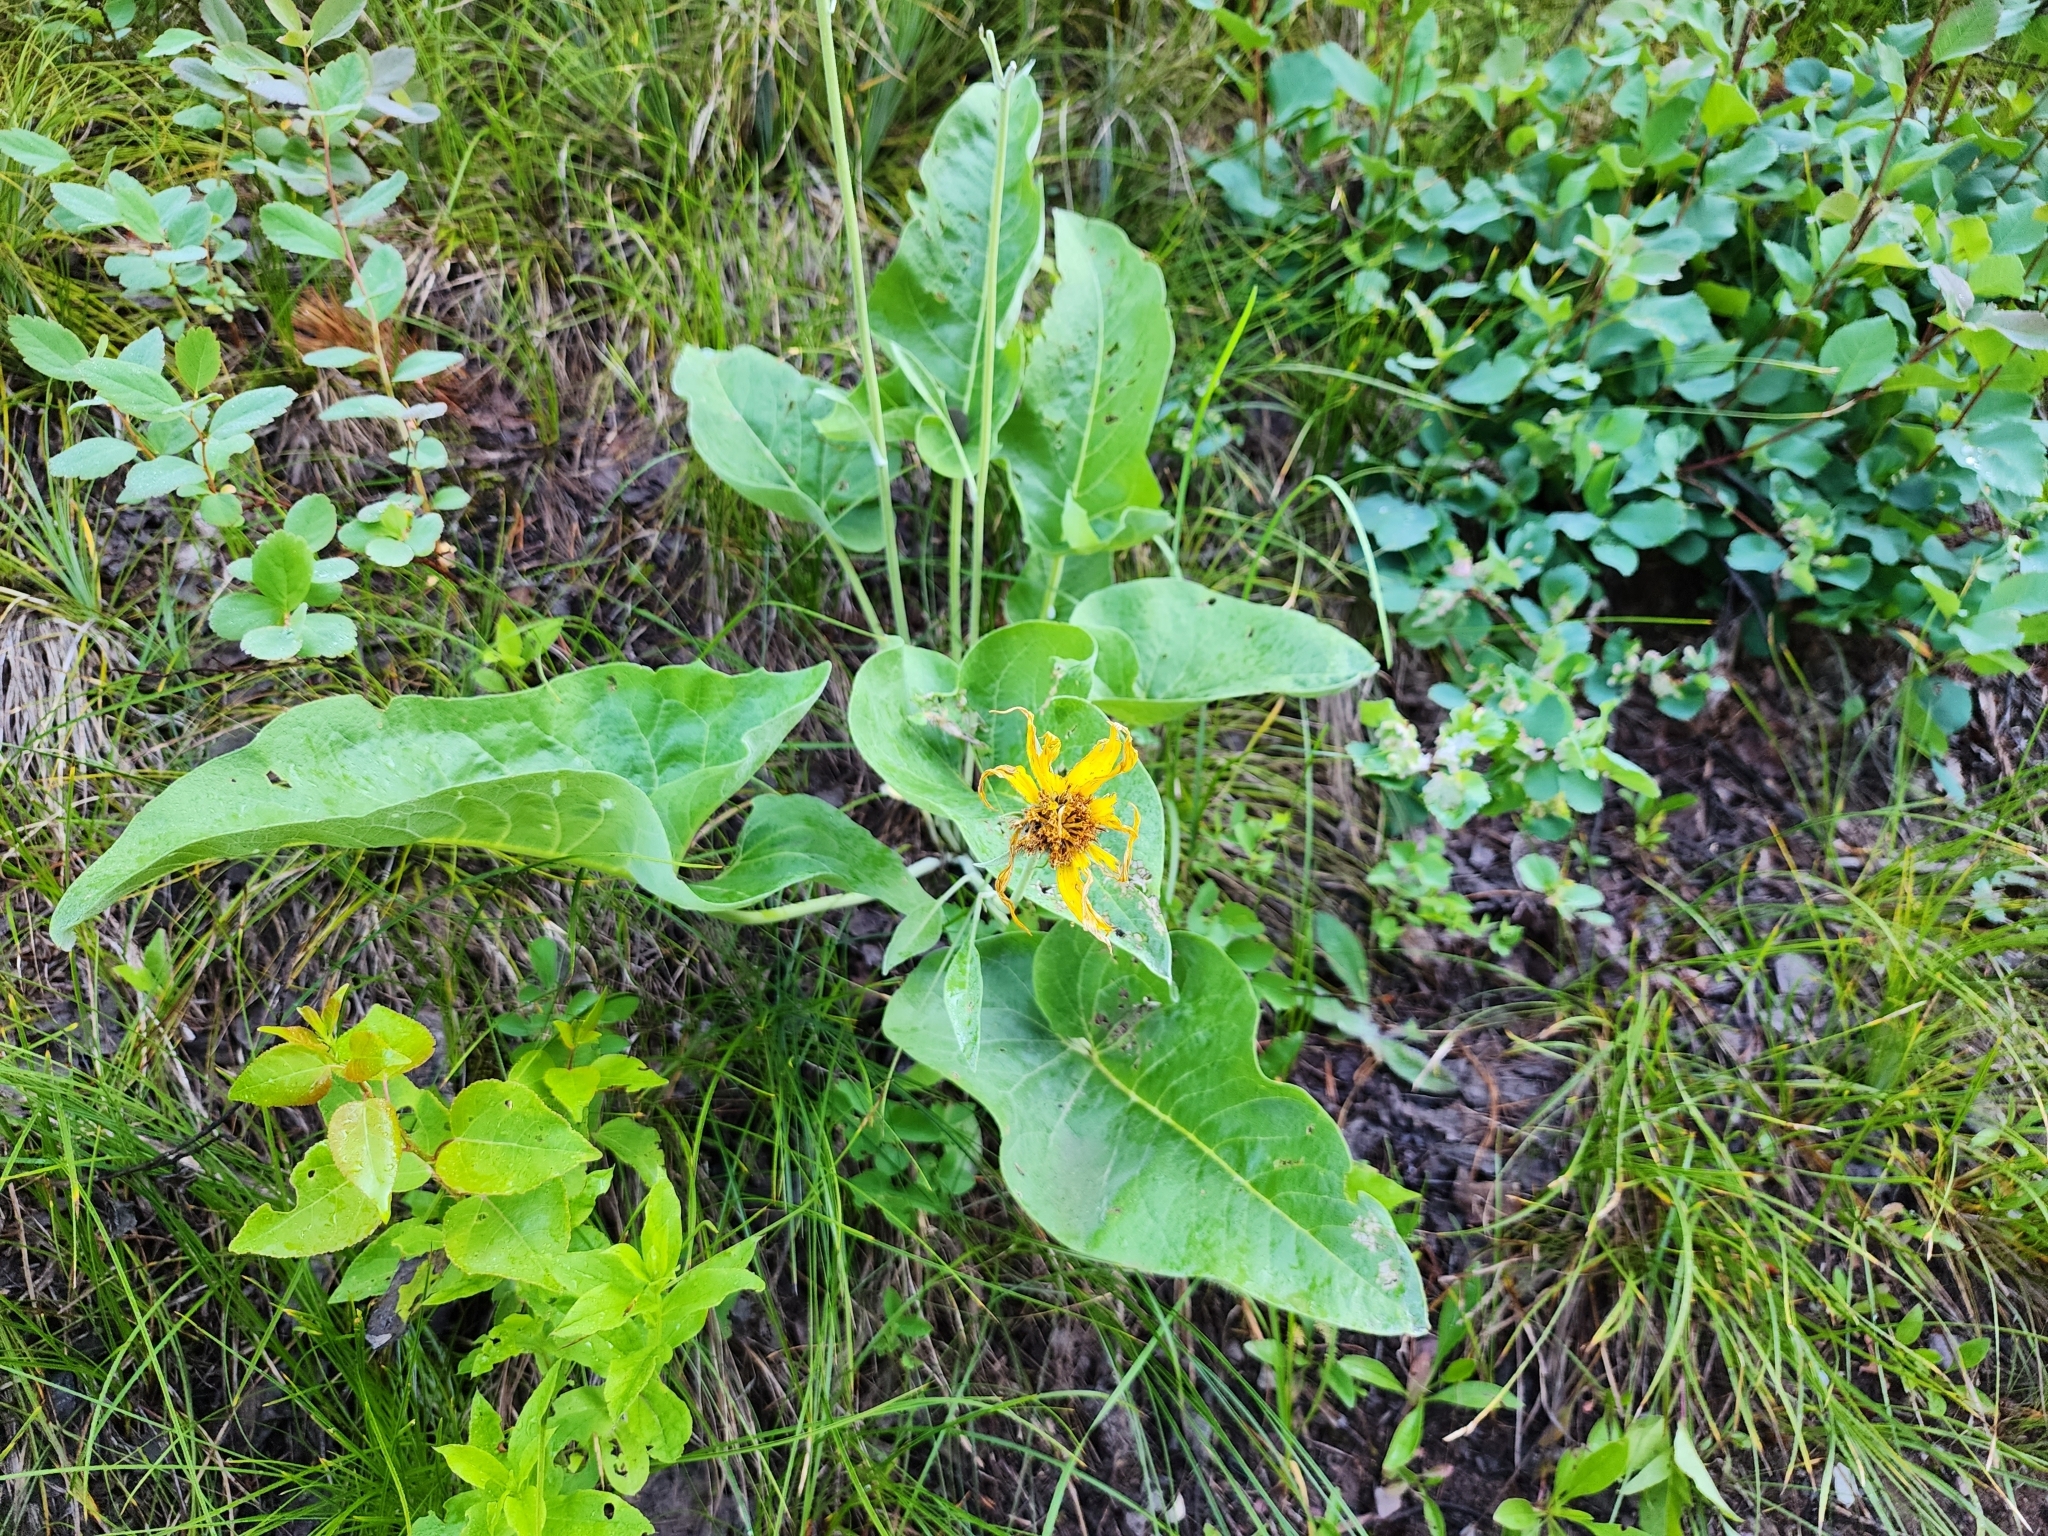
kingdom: Plantae
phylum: Tracheophyta
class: Magnoliopsida
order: Asterales
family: Asteraceae
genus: Wyethia
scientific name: Wyethia sagittata
